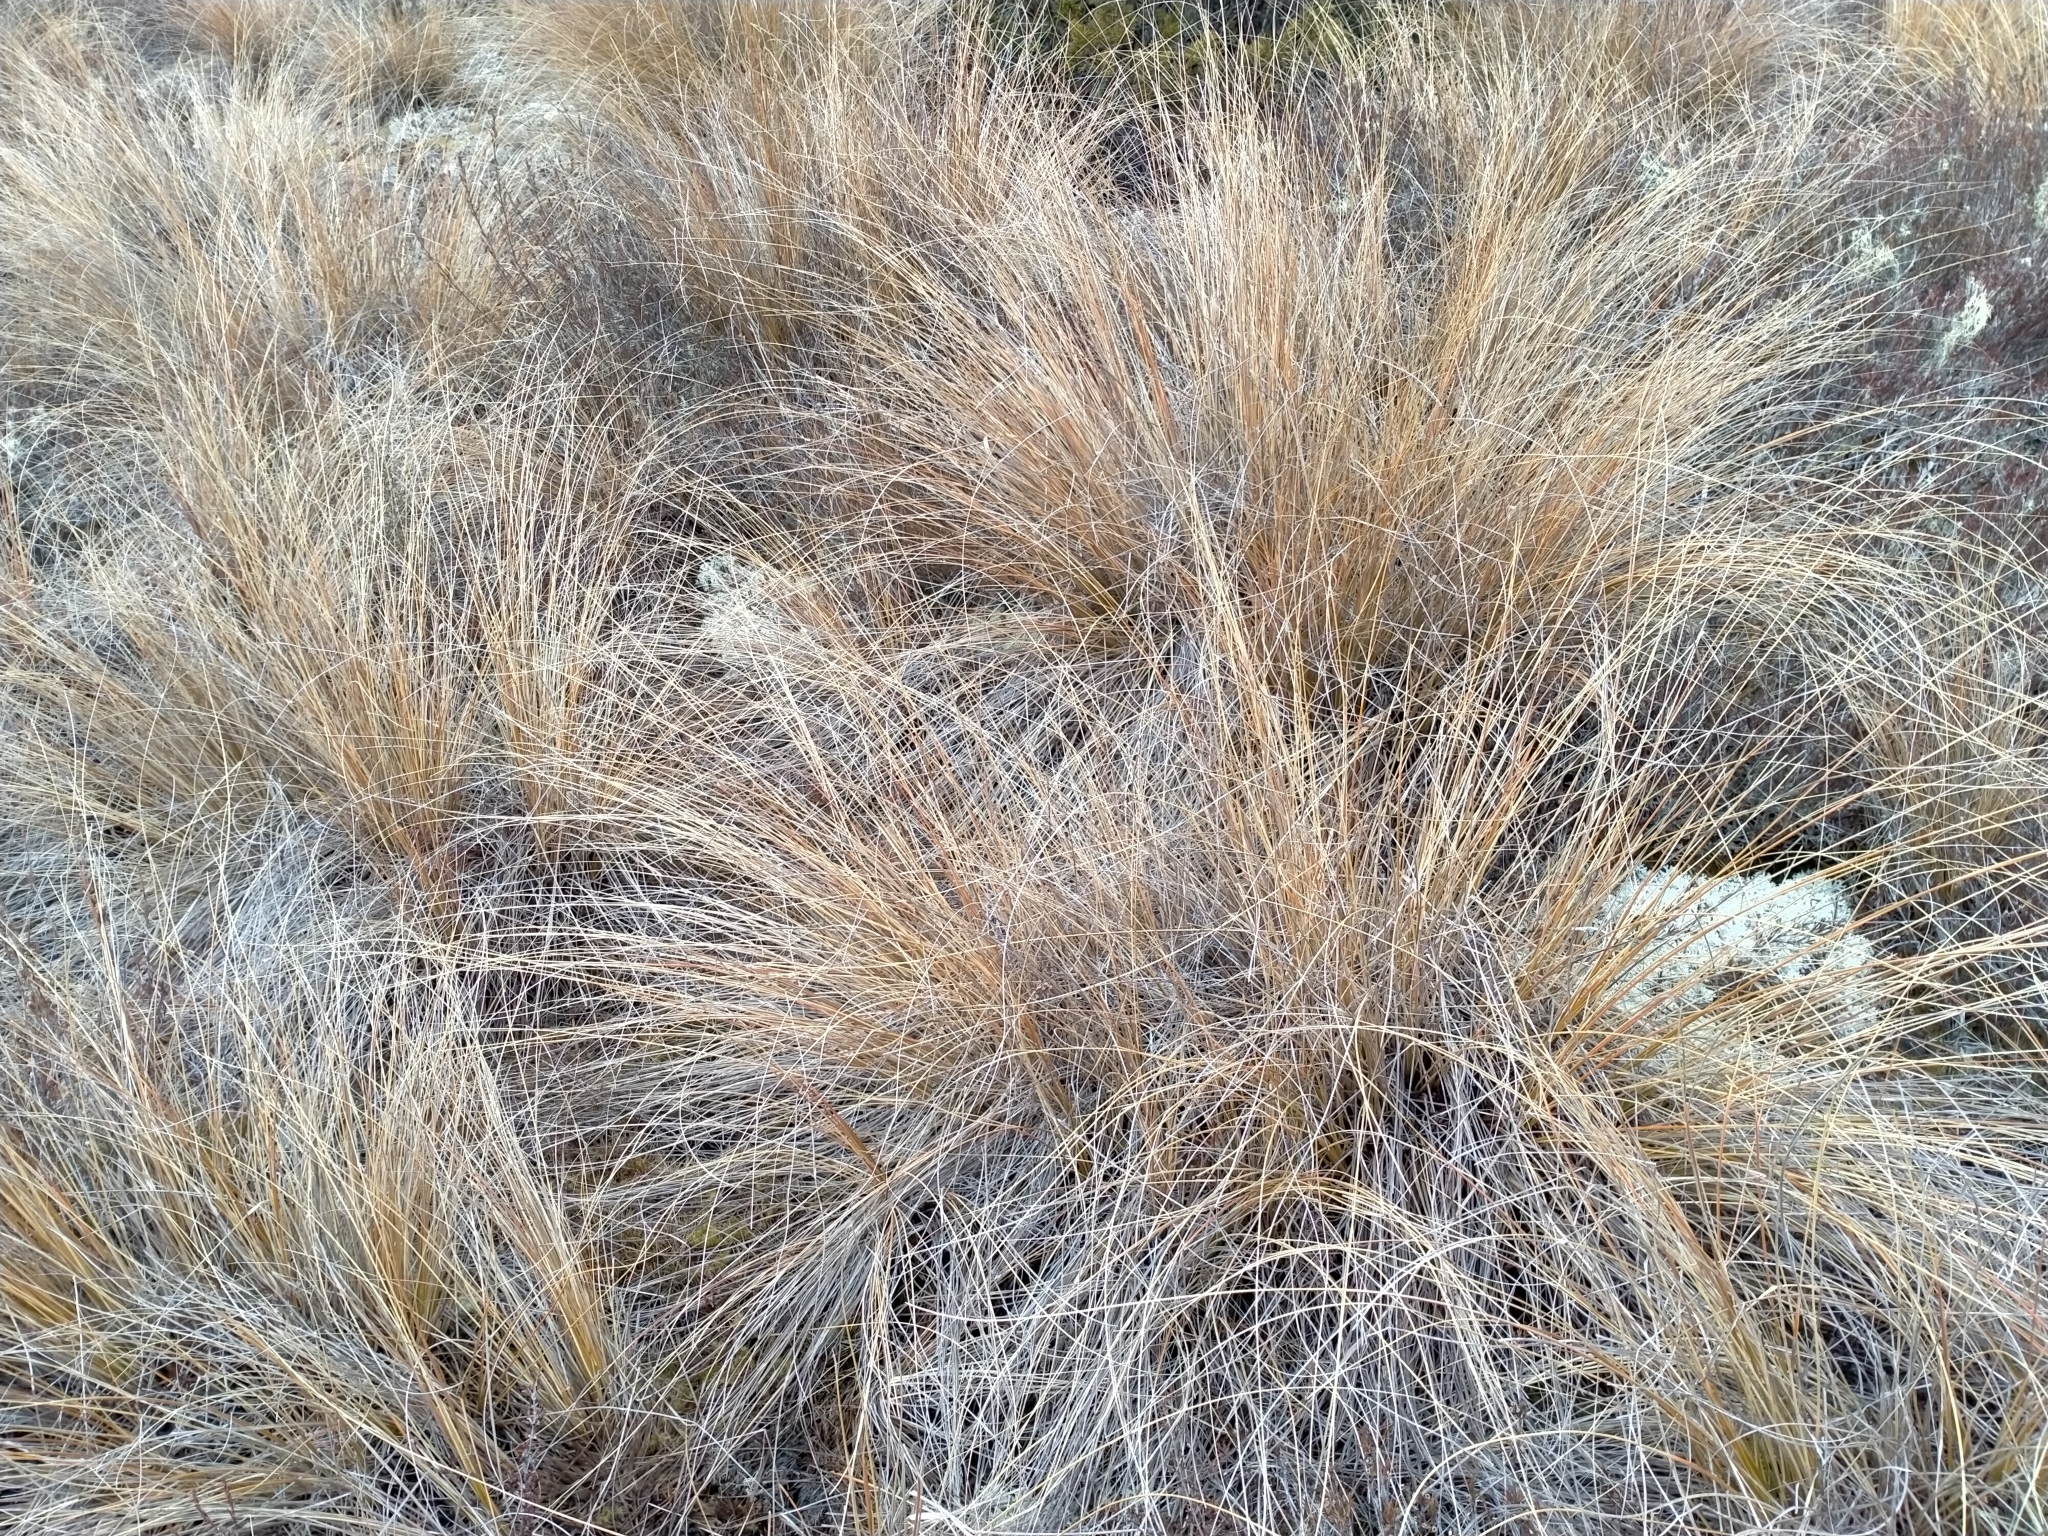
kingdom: Plantae
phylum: Tracheophyta
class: Liliopsida
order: Poales
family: Poaceae
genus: Chionochloa
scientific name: Chionochloa rubra
